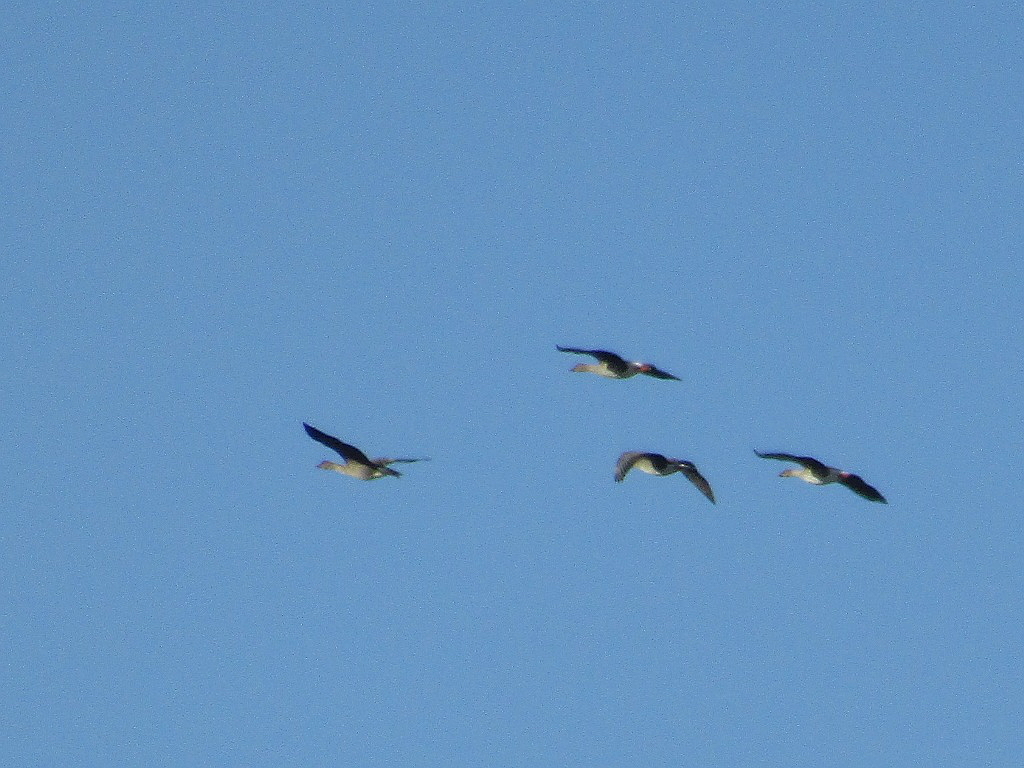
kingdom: Animalia
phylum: Chordata
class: Aves
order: Anseriformes
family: Anatidae
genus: Anser
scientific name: Anser fabalis
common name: Bean goose
